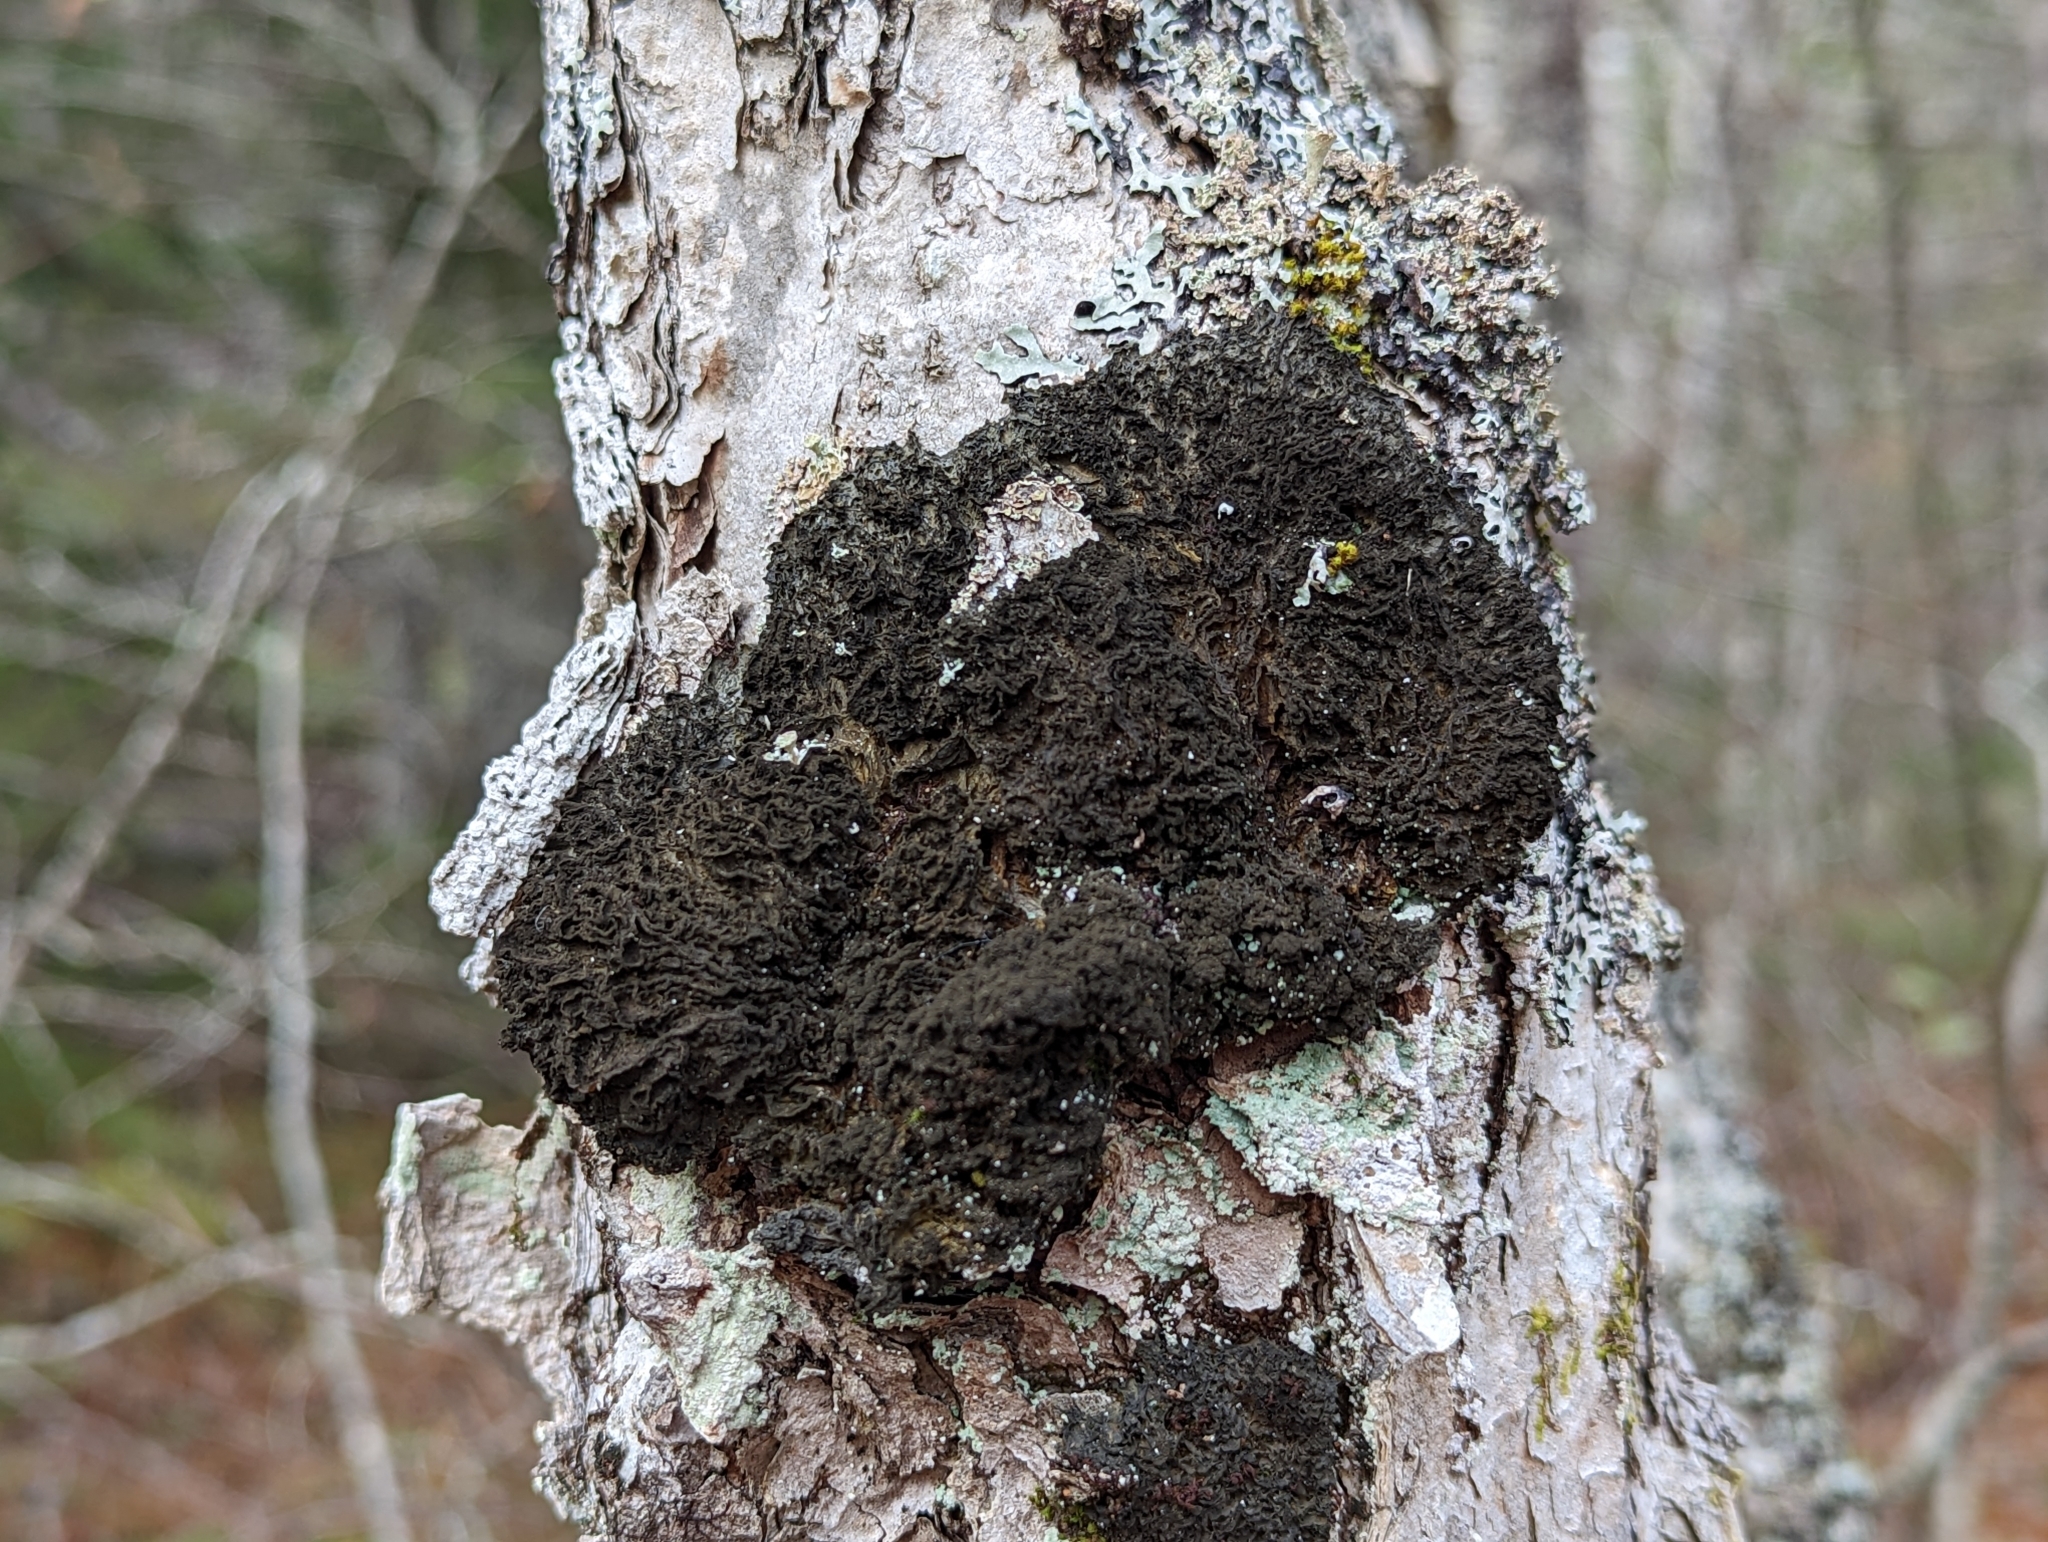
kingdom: Fungi
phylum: Ascomycota
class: Lecanoromycetes
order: Peltigerales
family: Collemataceae
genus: Leptogium
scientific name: Leptogium milligranum
